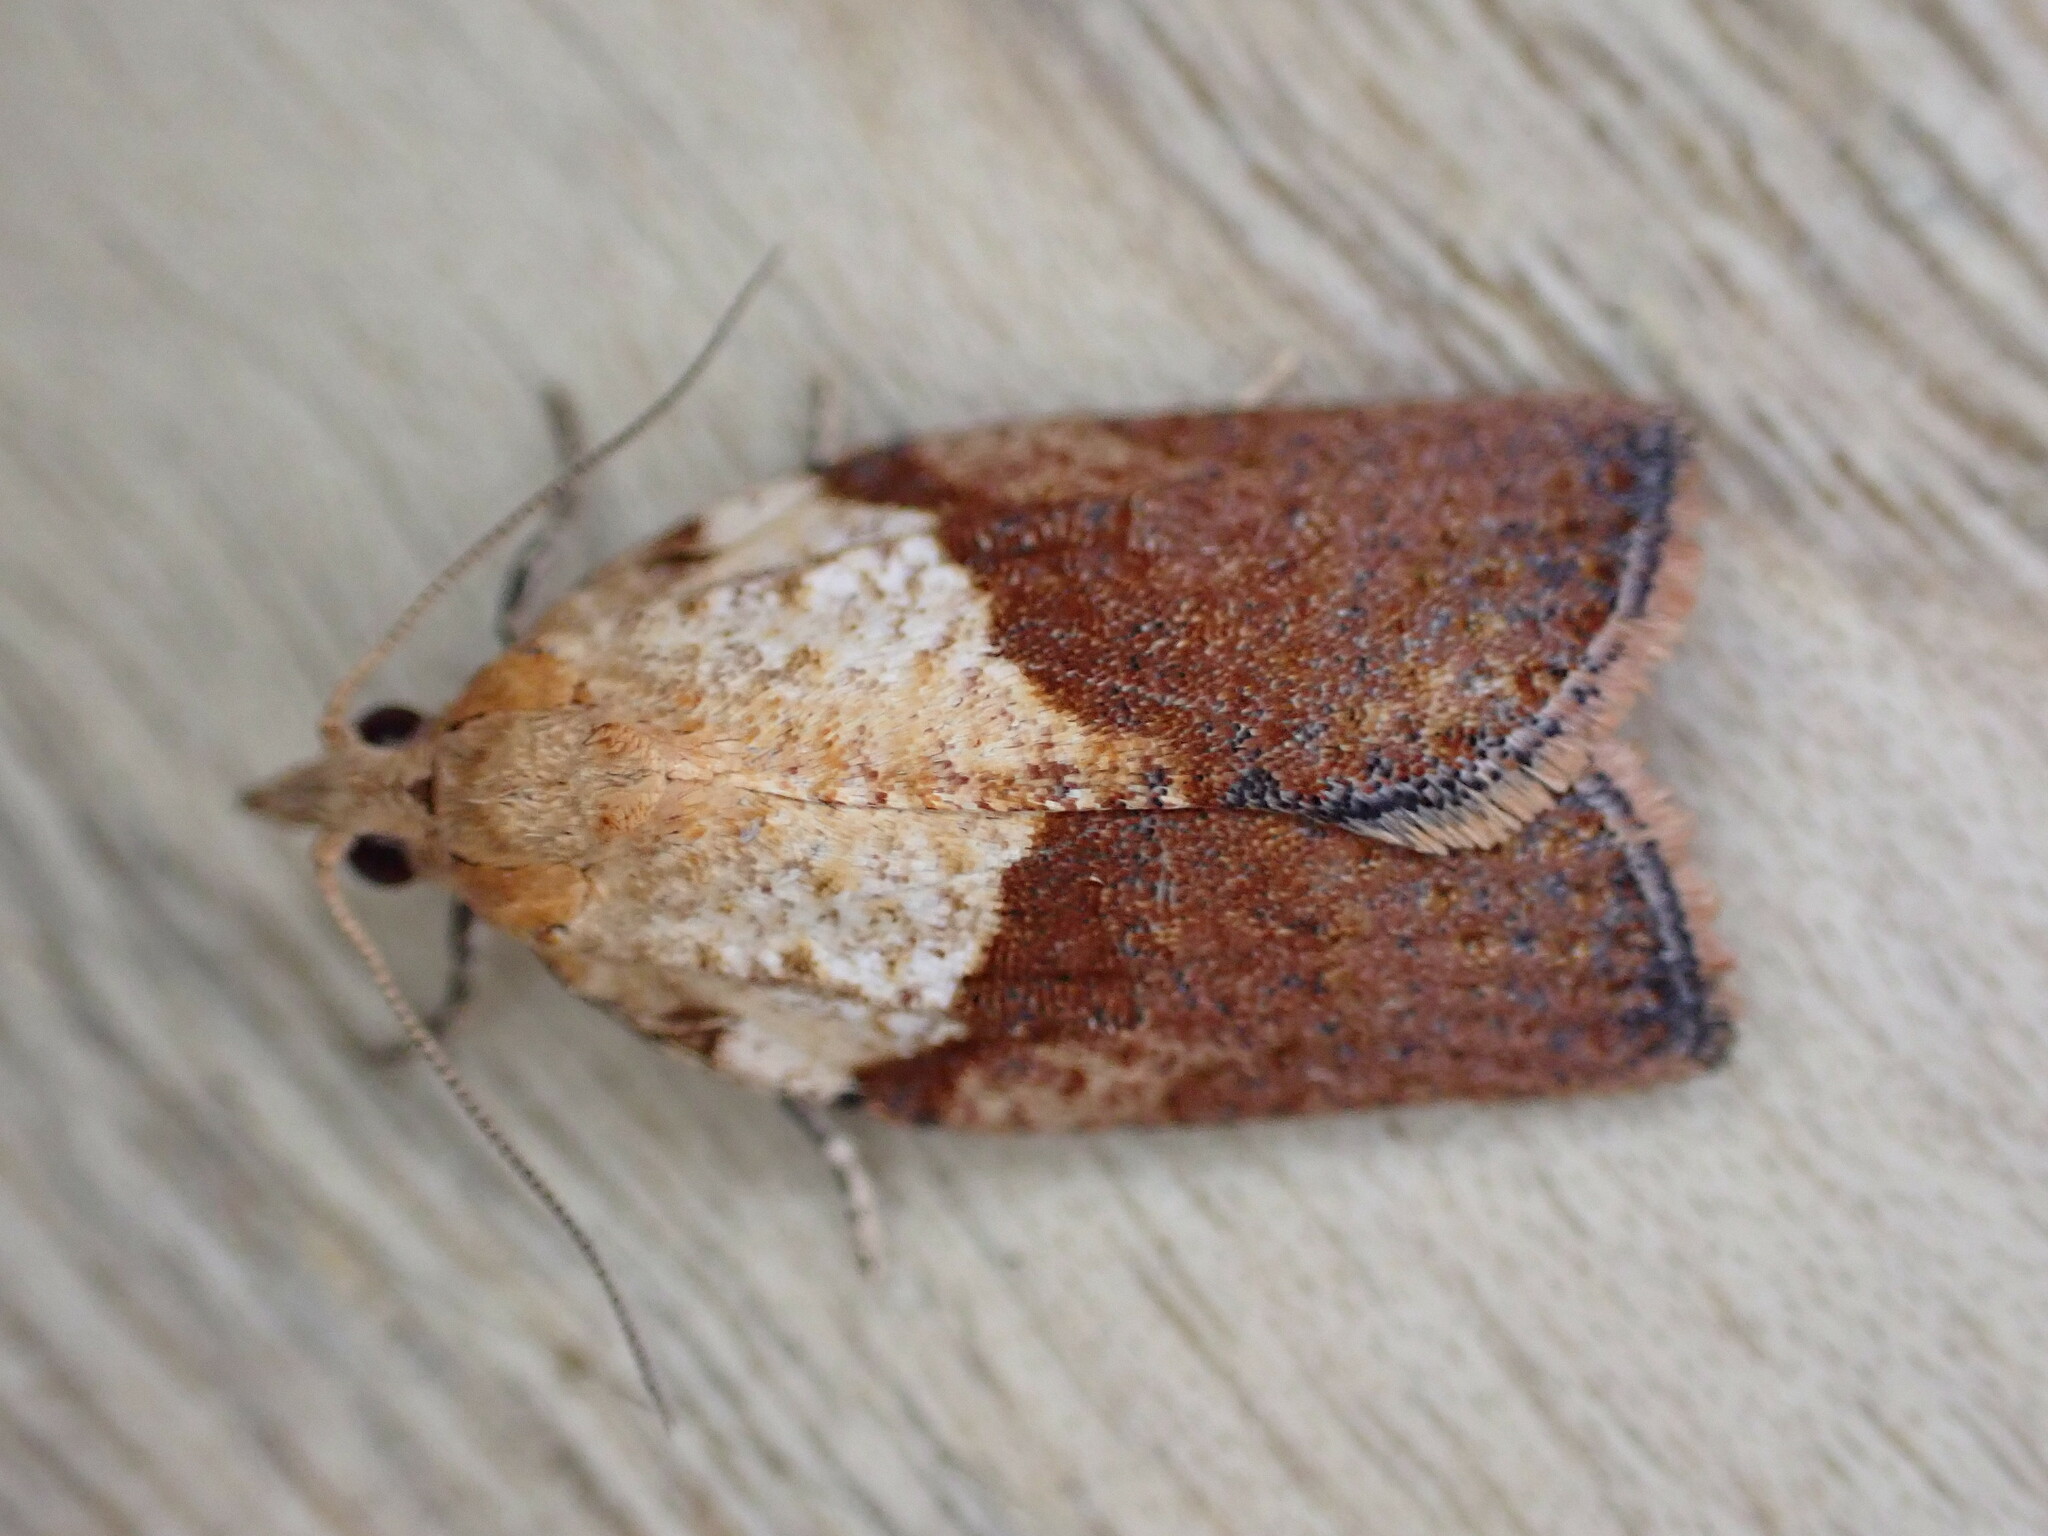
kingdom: Animalia
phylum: Arthropoda
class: Insecta
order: Lepidoptera
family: Tortricidae
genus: Epiphyas
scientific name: Epiphyas postvittana
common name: Light brown apple moth
